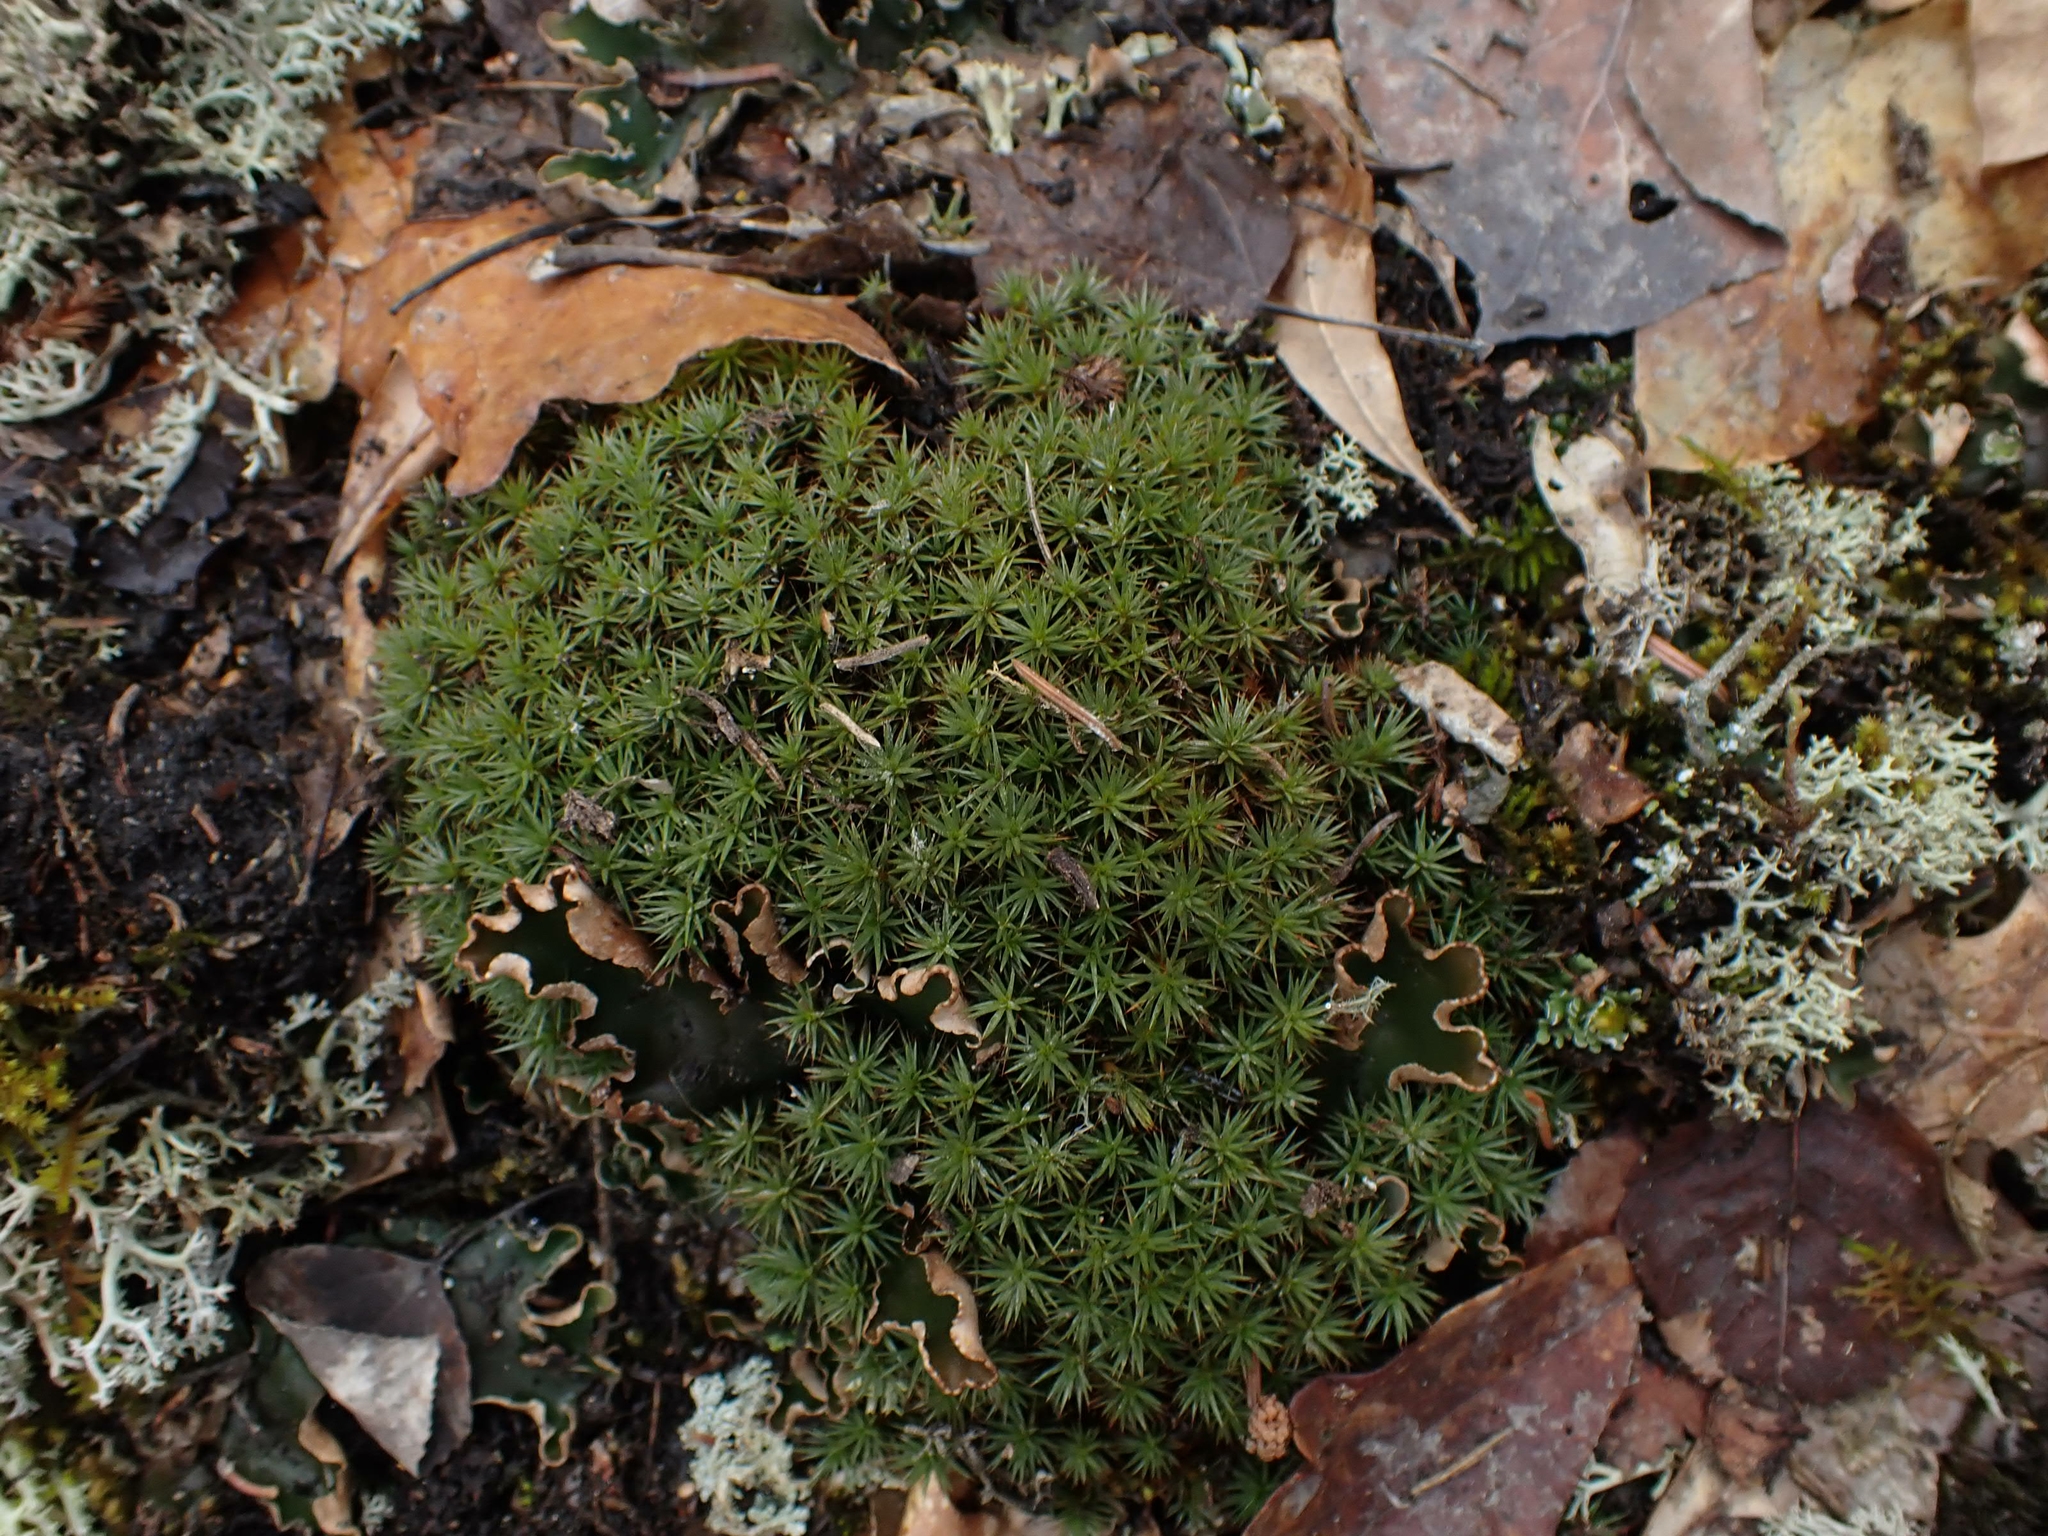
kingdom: Plantae
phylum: Bryophyta
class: Polytrichopsida
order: Polytrichales
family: Polytrichaceae
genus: Polytrichum
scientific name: Polytrichum juniperinum
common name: Juniper haircap moss
